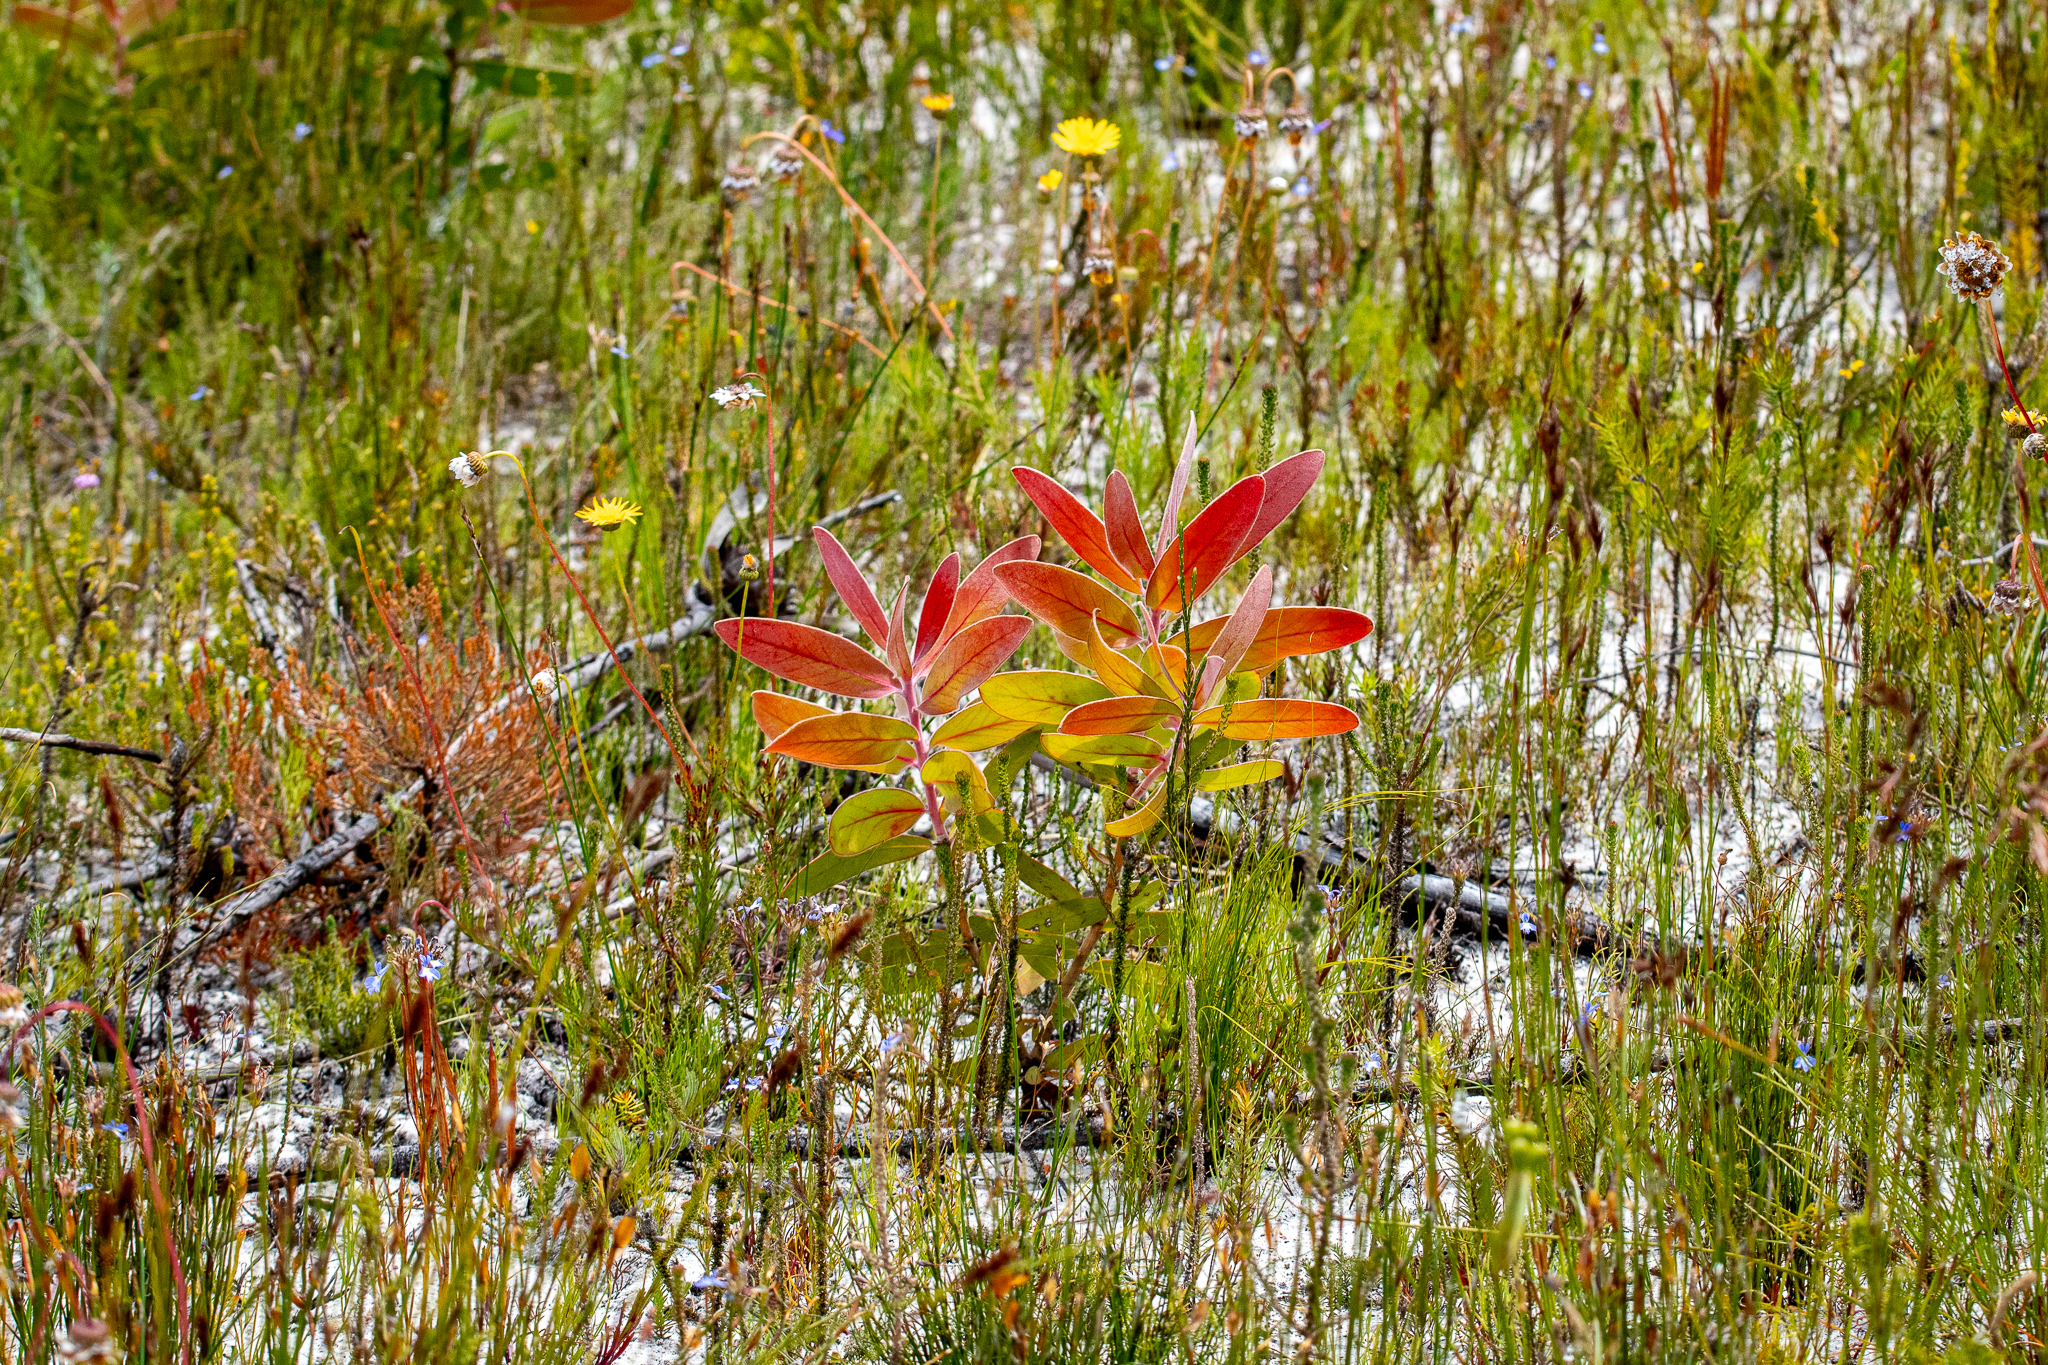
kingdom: Plantae
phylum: Tracheophyta
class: Magnoliopsida
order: Proteales
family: Proteaceae
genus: Protea
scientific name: Protea compacta
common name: Bot river protea
